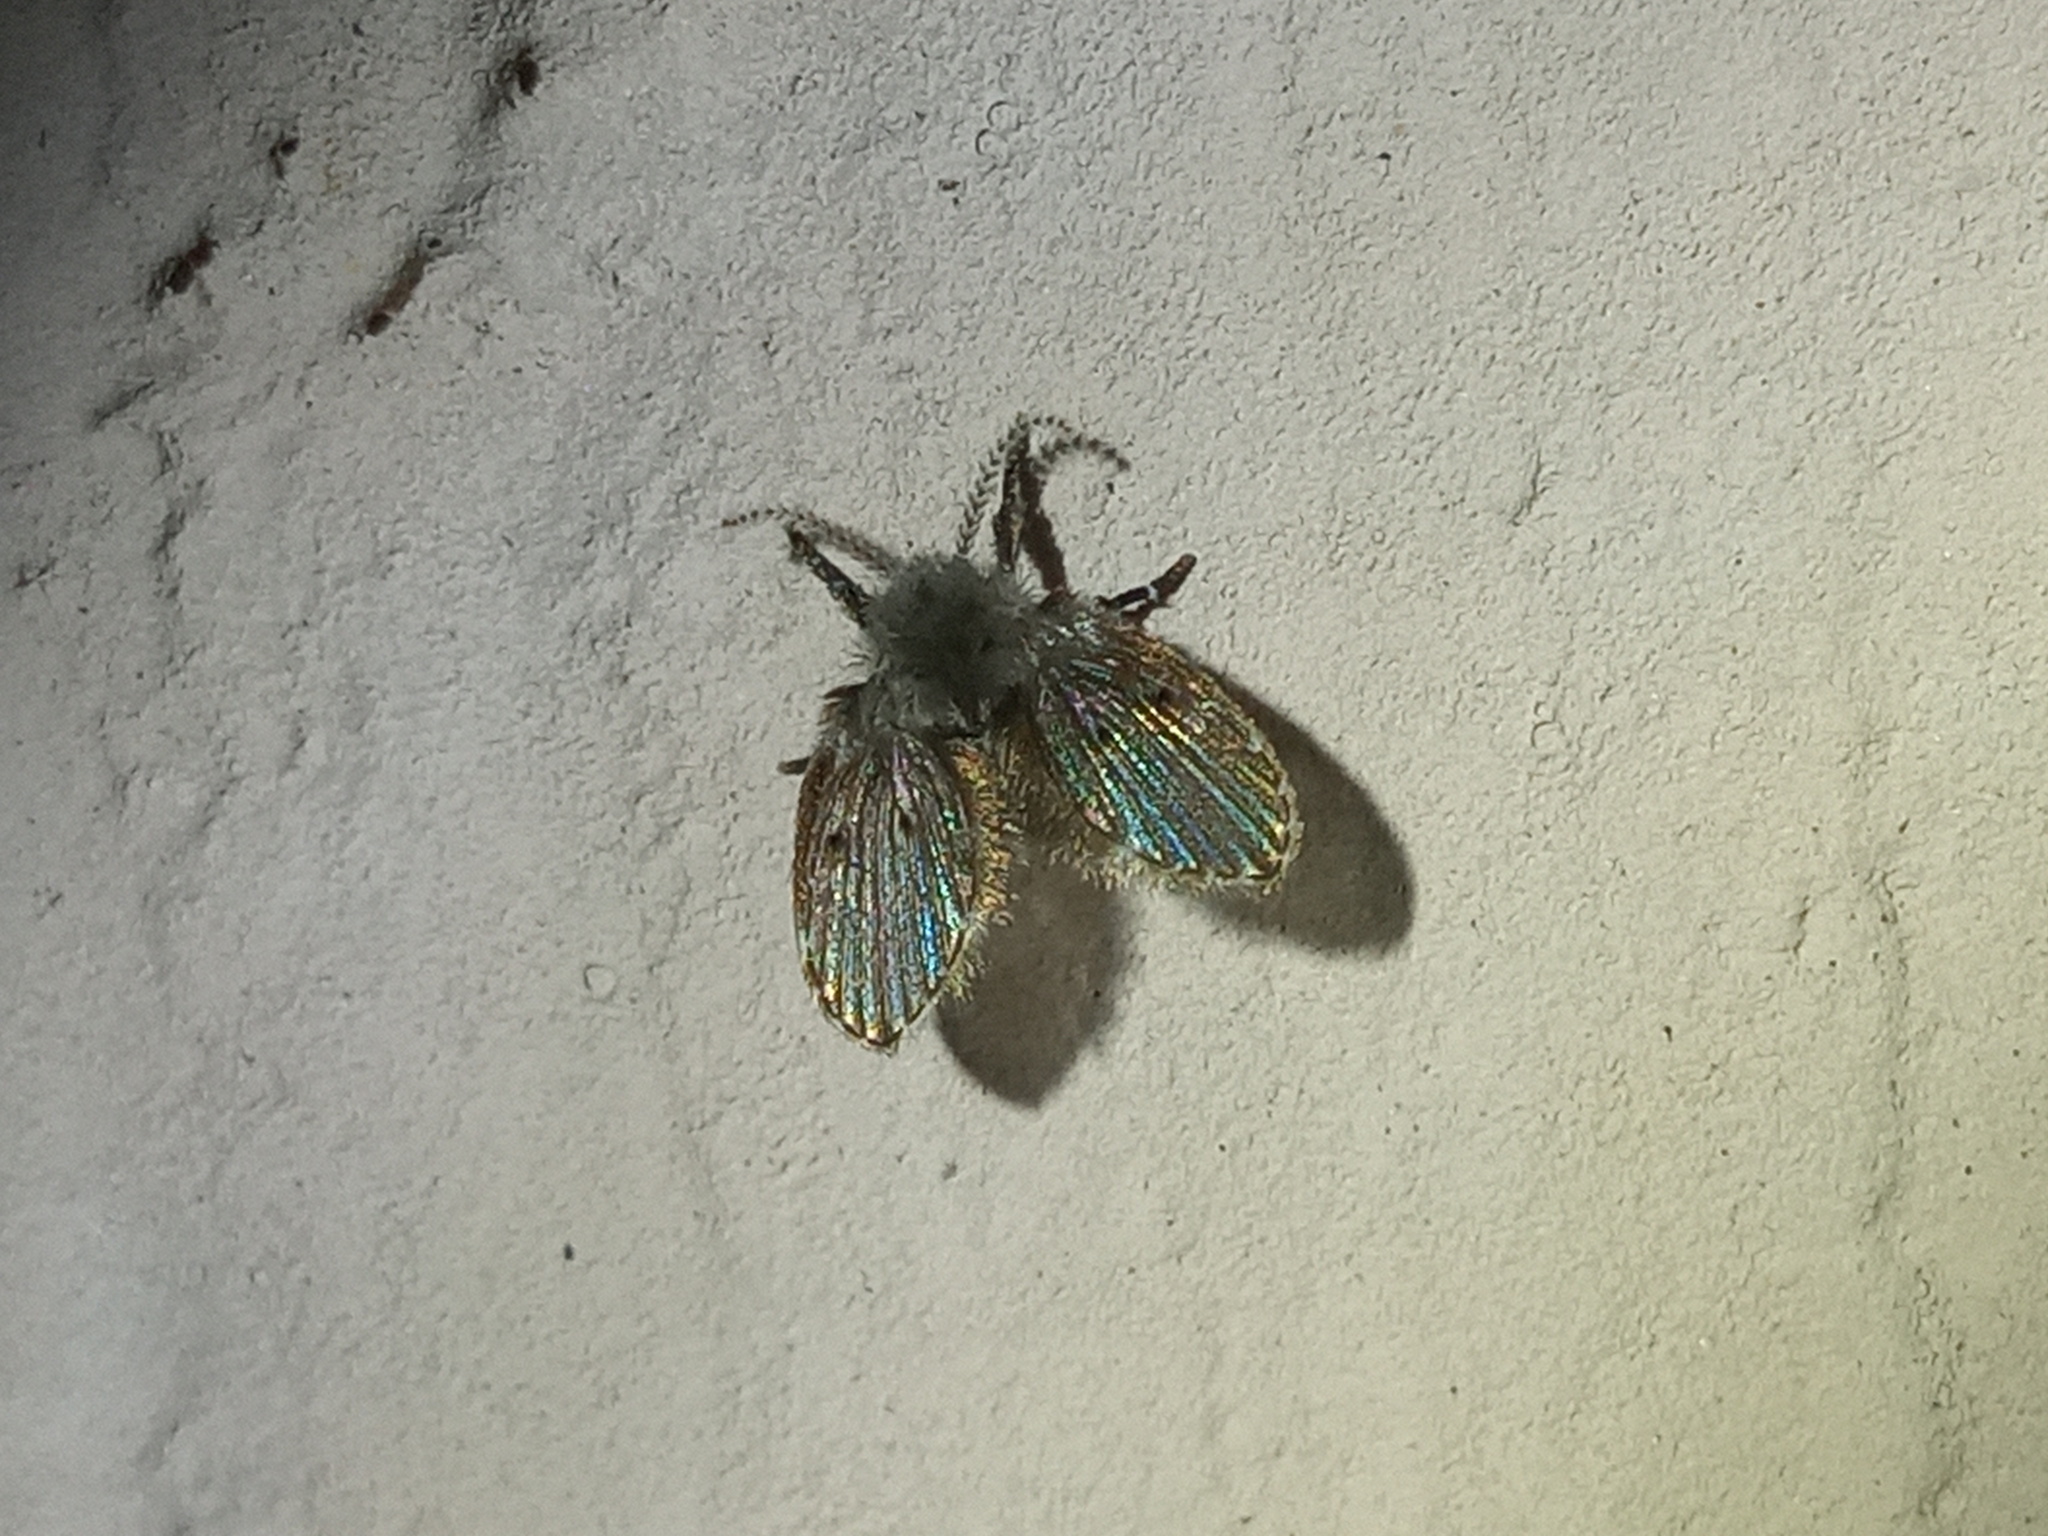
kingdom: Animalia
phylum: Arthropoda
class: Insecta
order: Diptera
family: Psychodidae
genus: Clogmia
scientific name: Clogmia albipunctatus
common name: White-spotted moth fly
